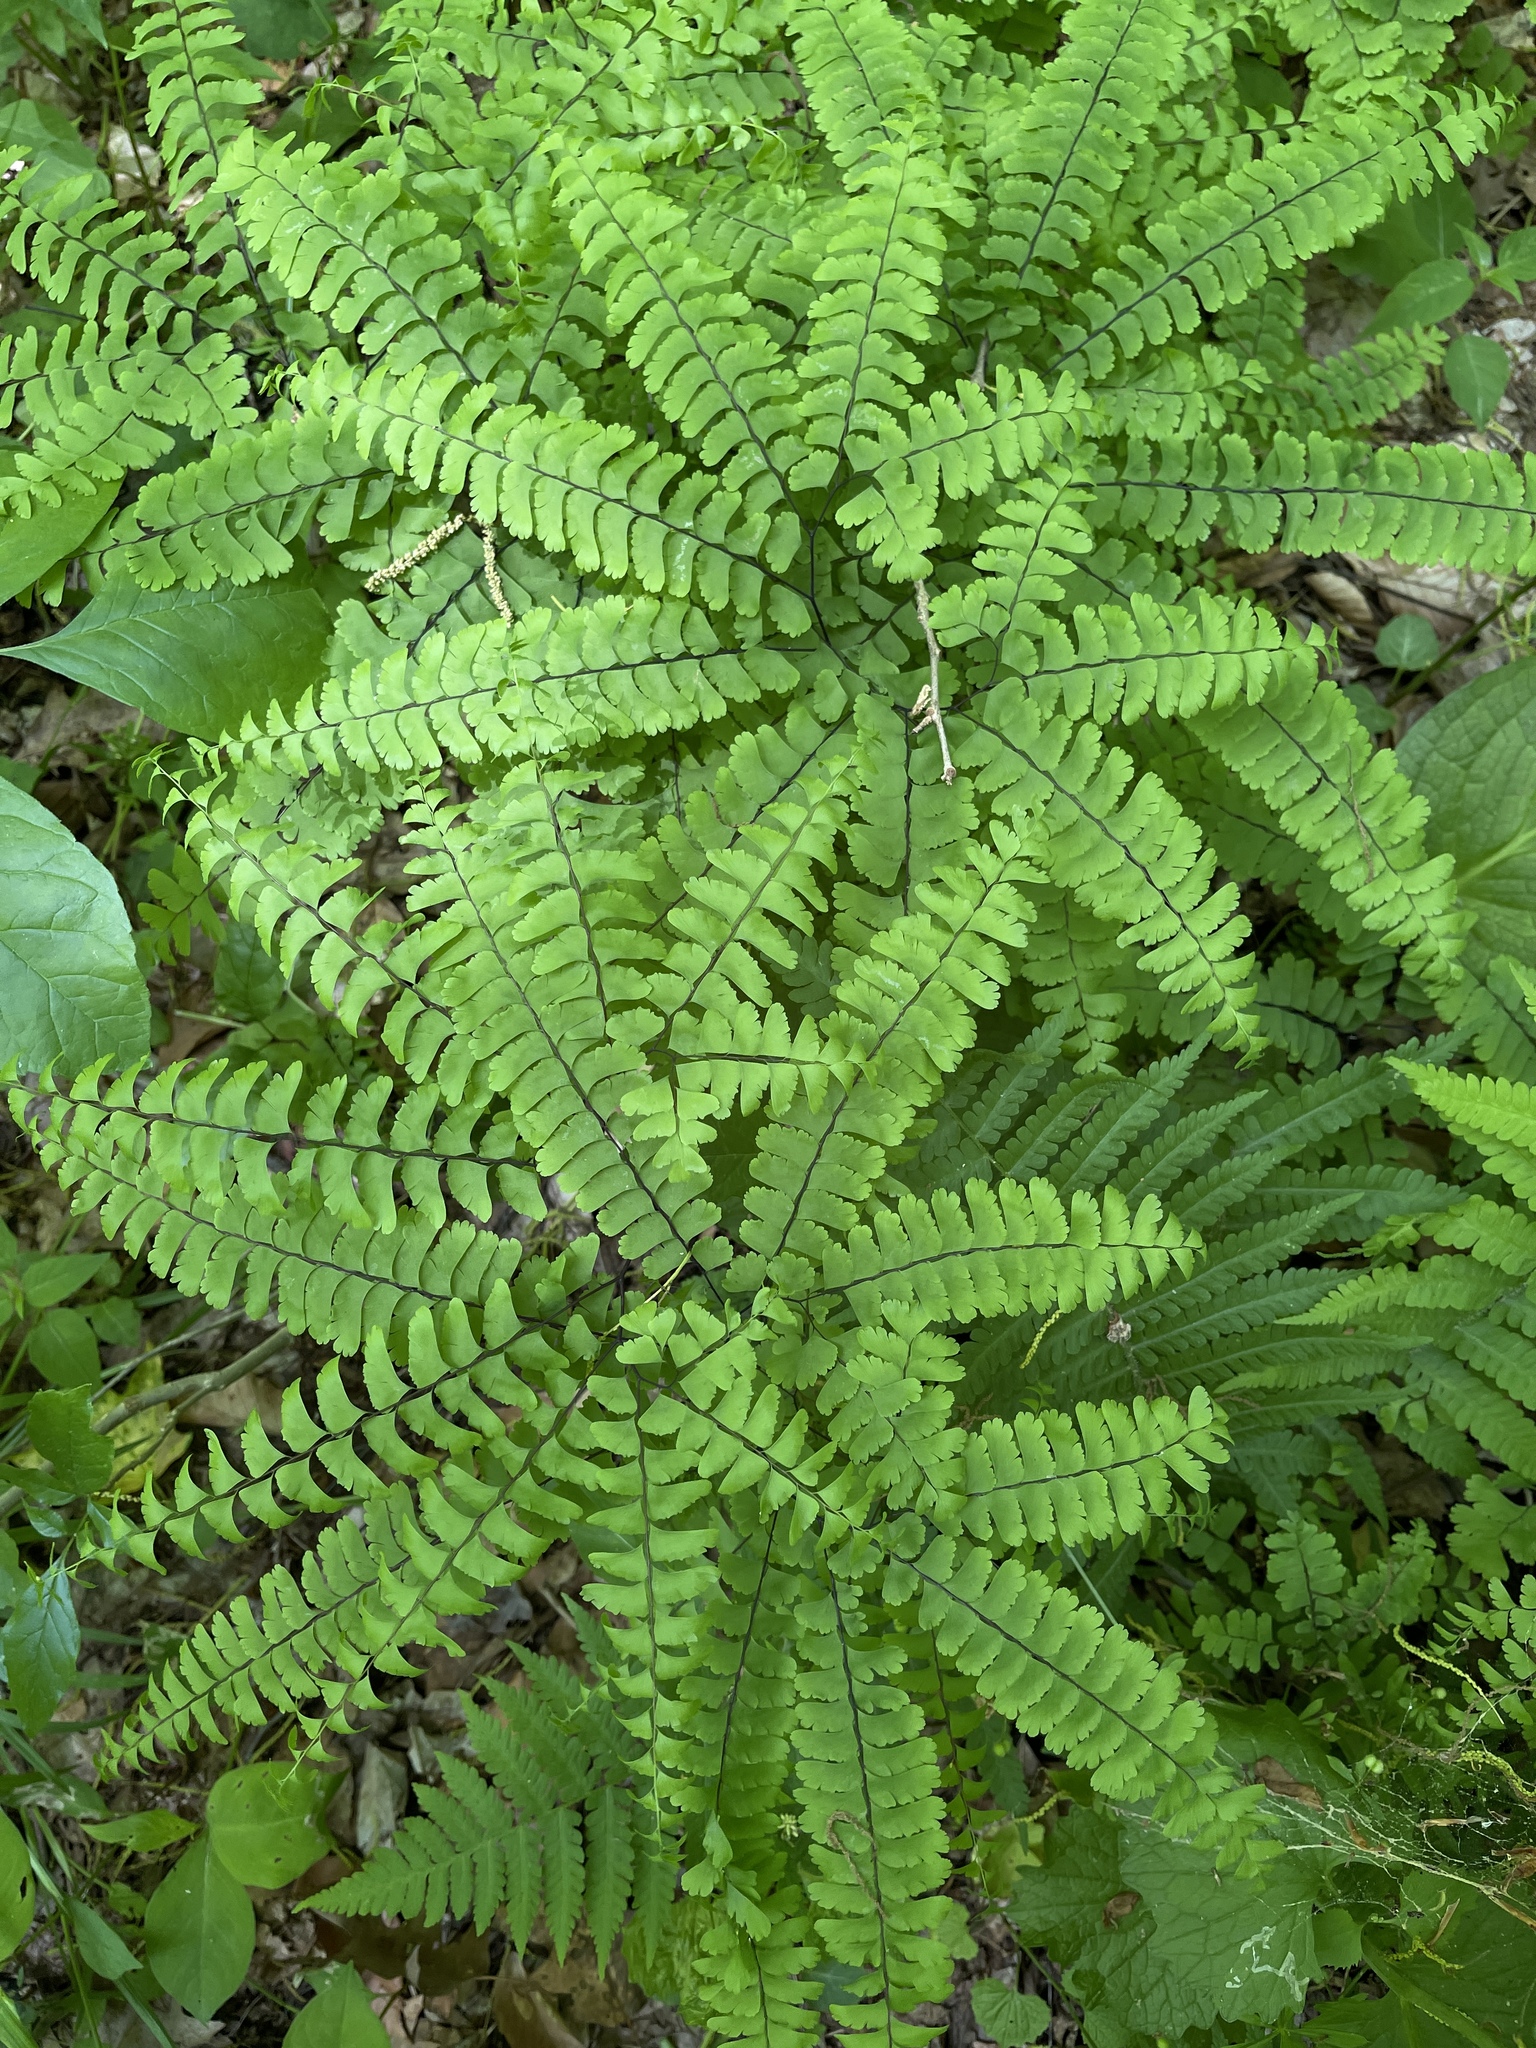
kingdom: Plantae
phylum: Tracheophyta
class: Polypodiopsida
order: Polypodiales
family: Pteridaceae
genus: Adiantum
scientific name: Adiantum pedatum
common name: Five-finger fern
